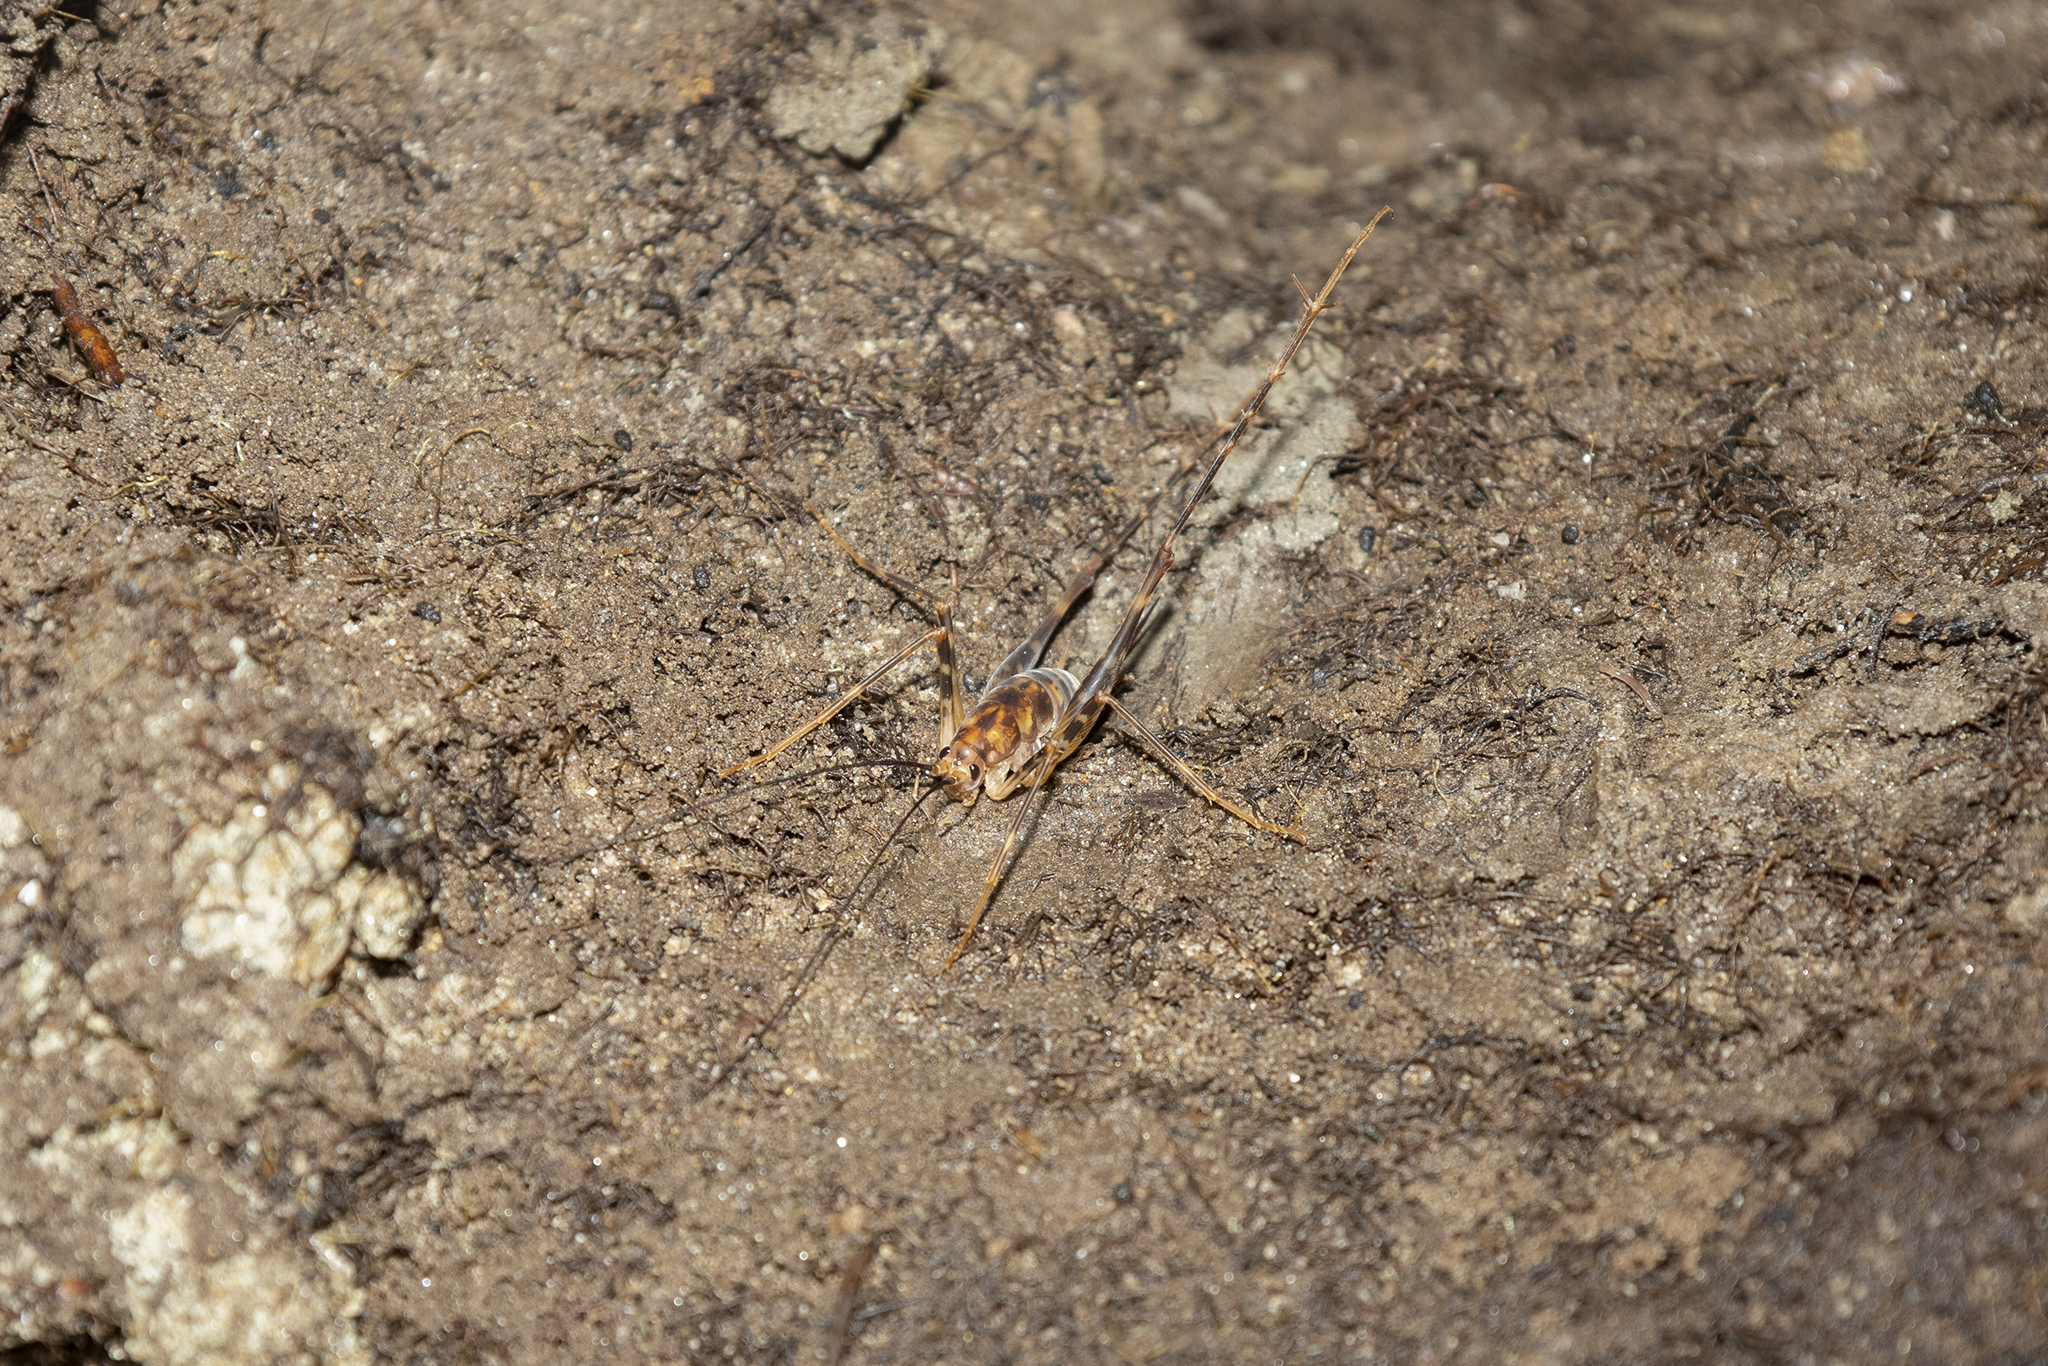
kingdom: Animalia
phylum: Arthropoda
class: Insecta
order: Orthoptera
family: Rhaphidophoridae
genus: Miotopus
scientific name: Miotopus richardsae
